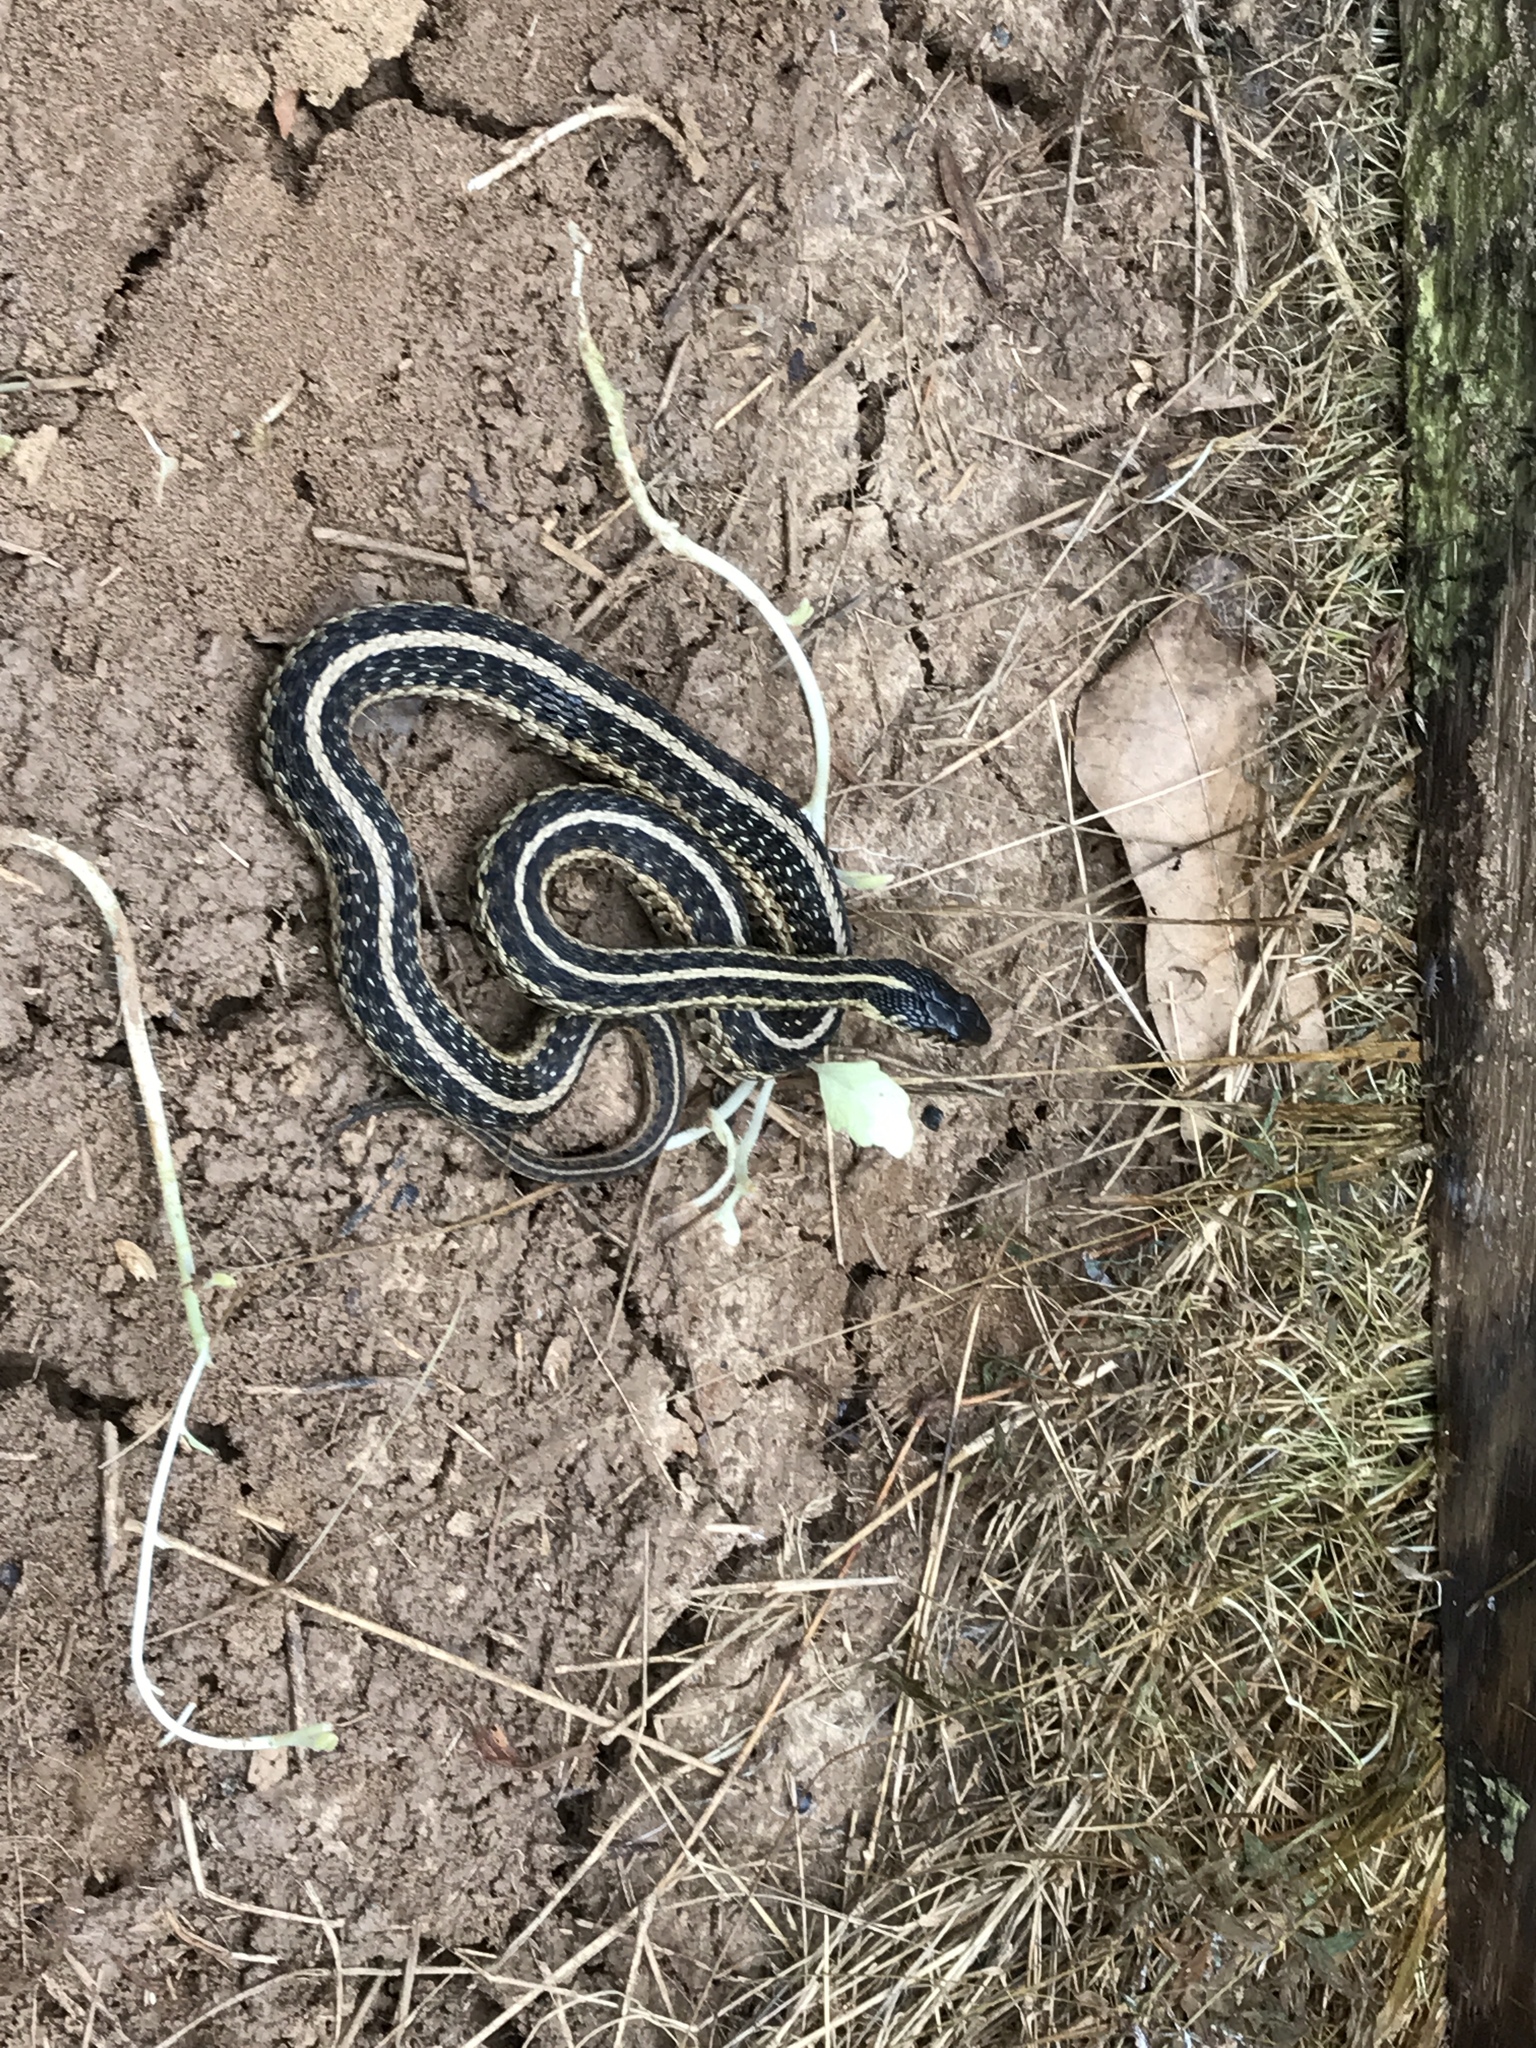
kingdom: Animalia
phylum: Chordata
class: Squamata
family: Colubridae
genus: Thamnophis
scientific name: Thamnophis sirtalis
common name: Common garter snake
